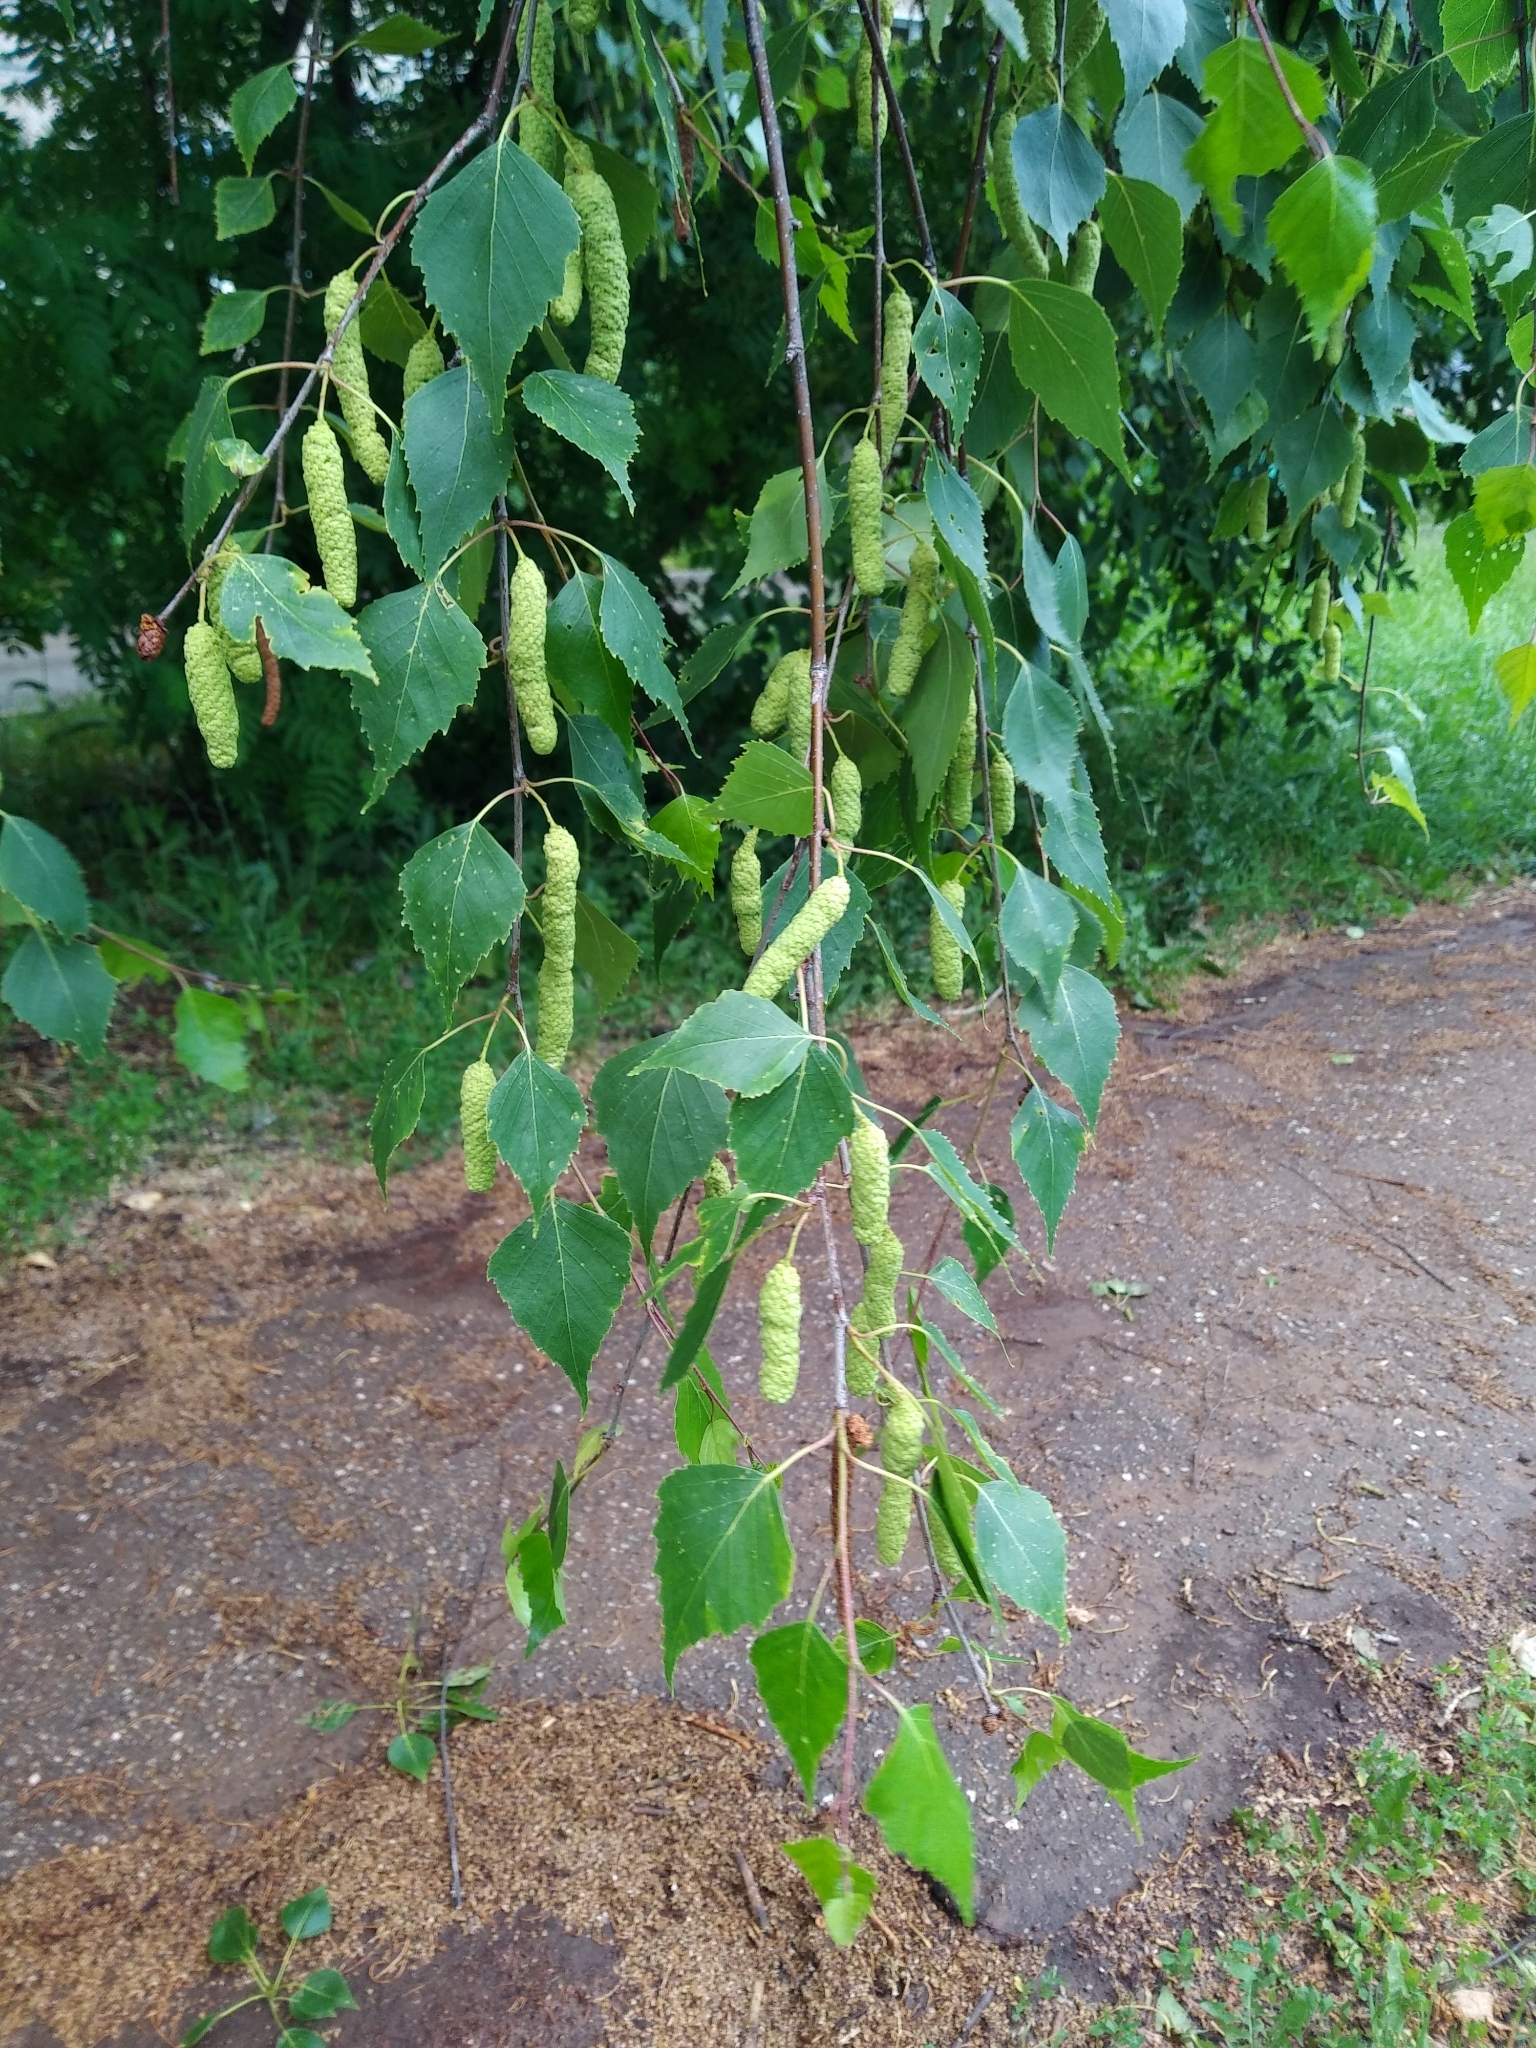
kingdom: Plantae
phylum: Tracheophyta
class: Magnoliopsida
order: Fagales
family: Betulaceae
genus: Betula
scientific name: Betula pendula
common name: Silver birch
